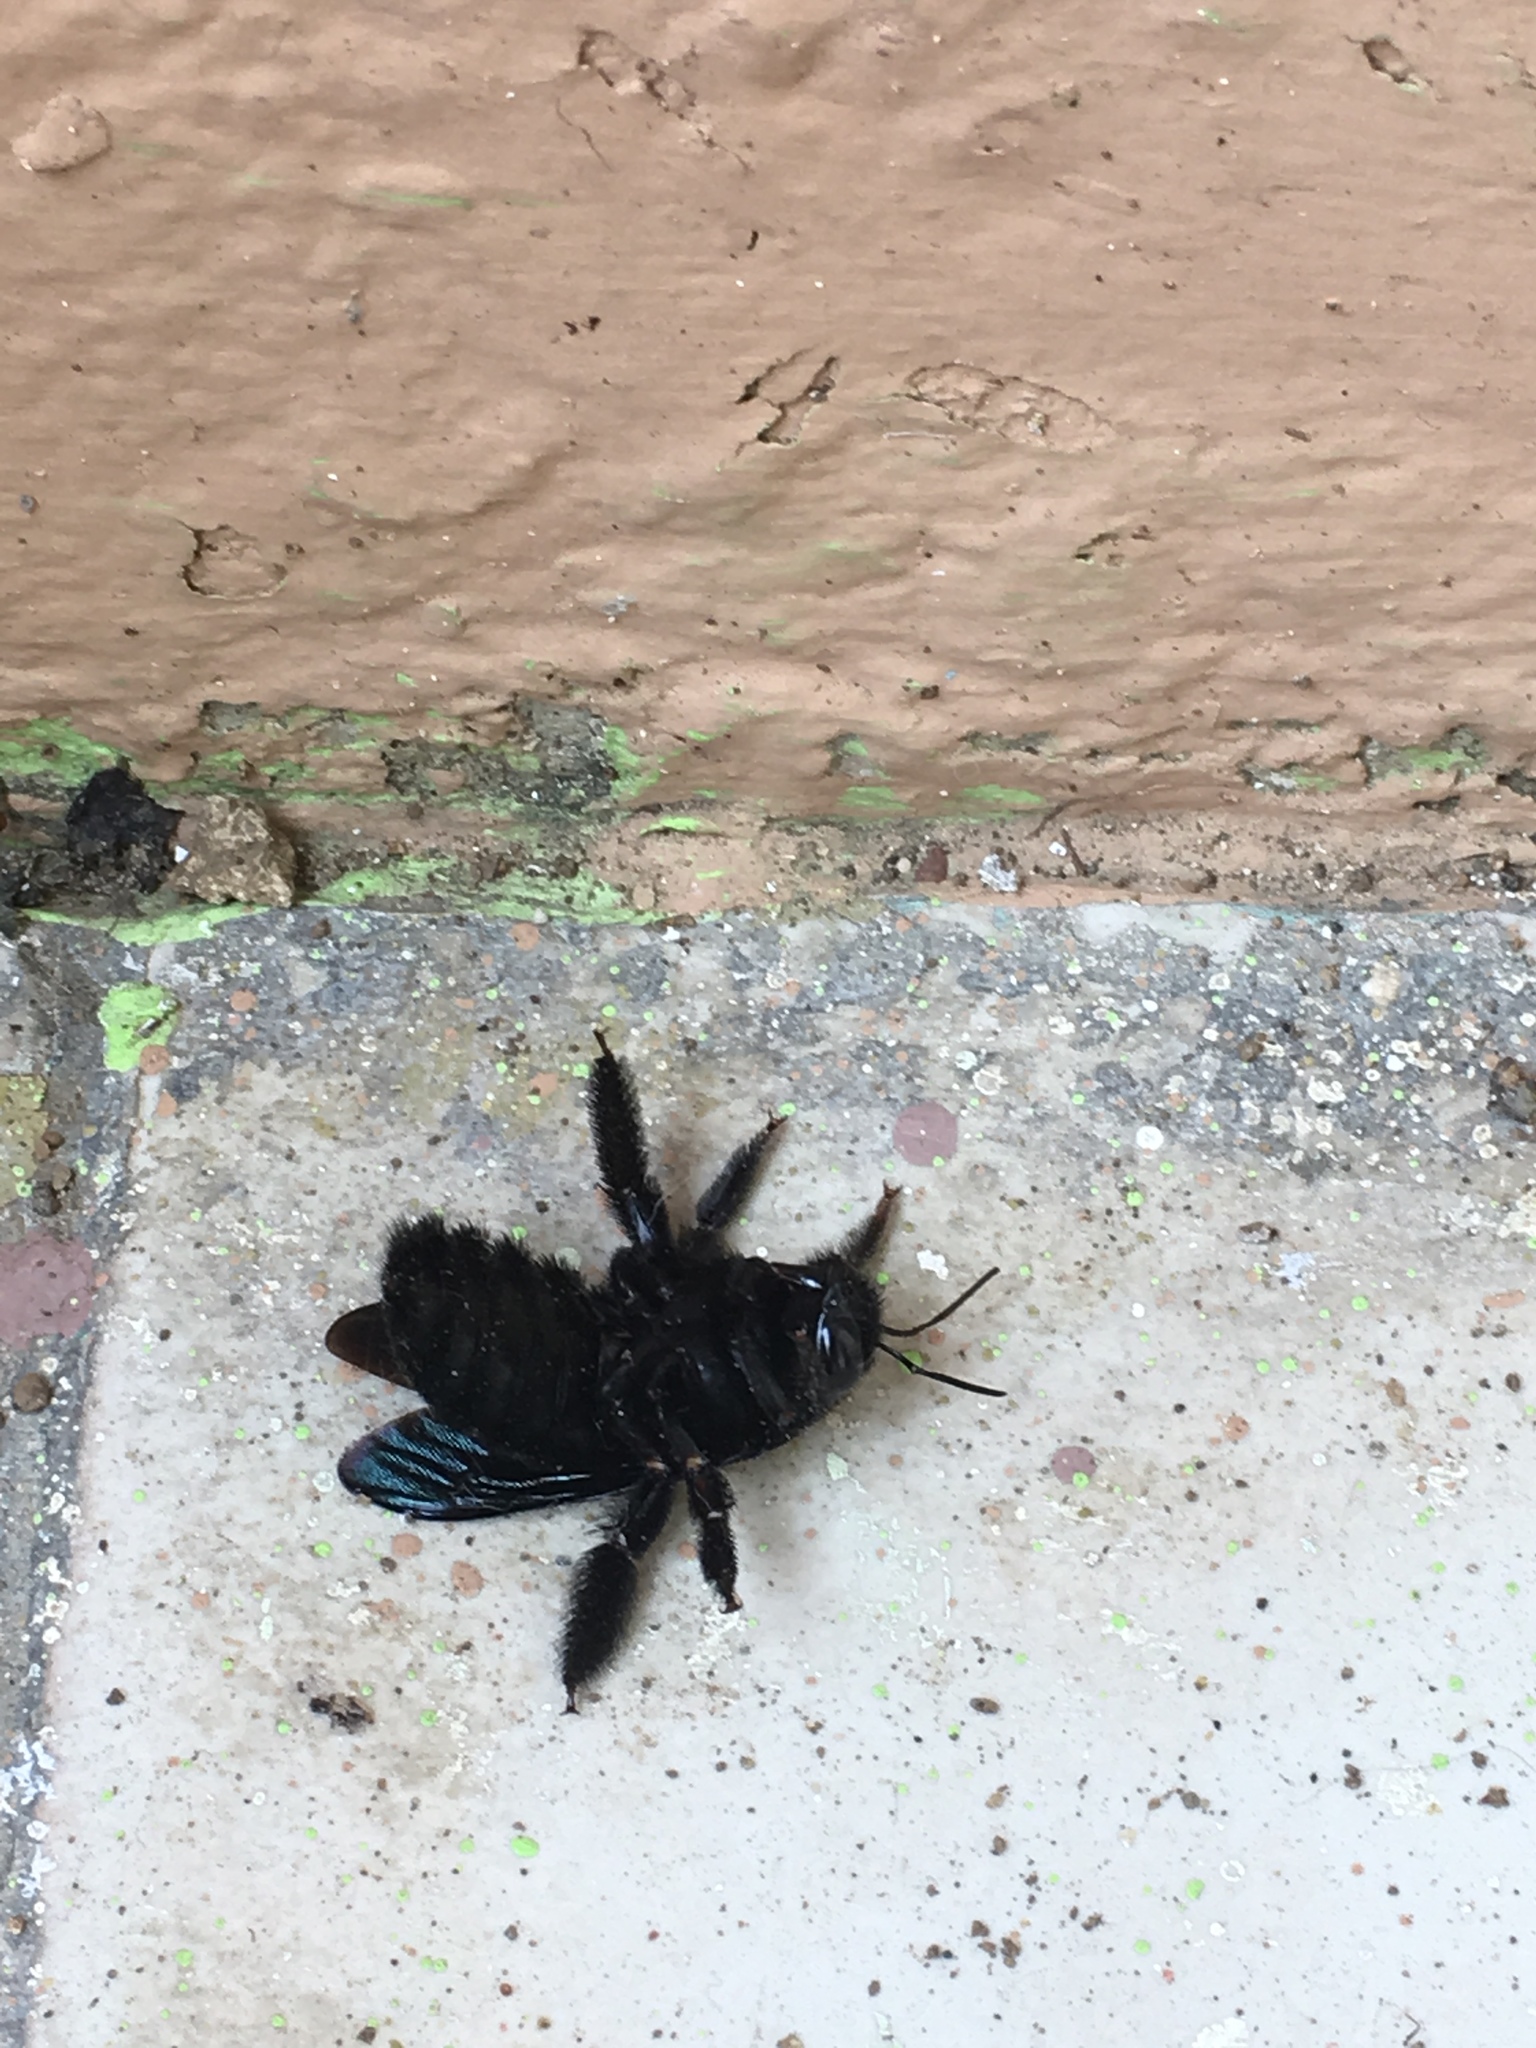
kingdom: Animalia
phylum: Arthropoda
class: Insecta
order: Hymenoptera
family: Apidae
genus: Xylocopa
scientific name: Xylocopa mordax
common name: Antillean carpenter bee
